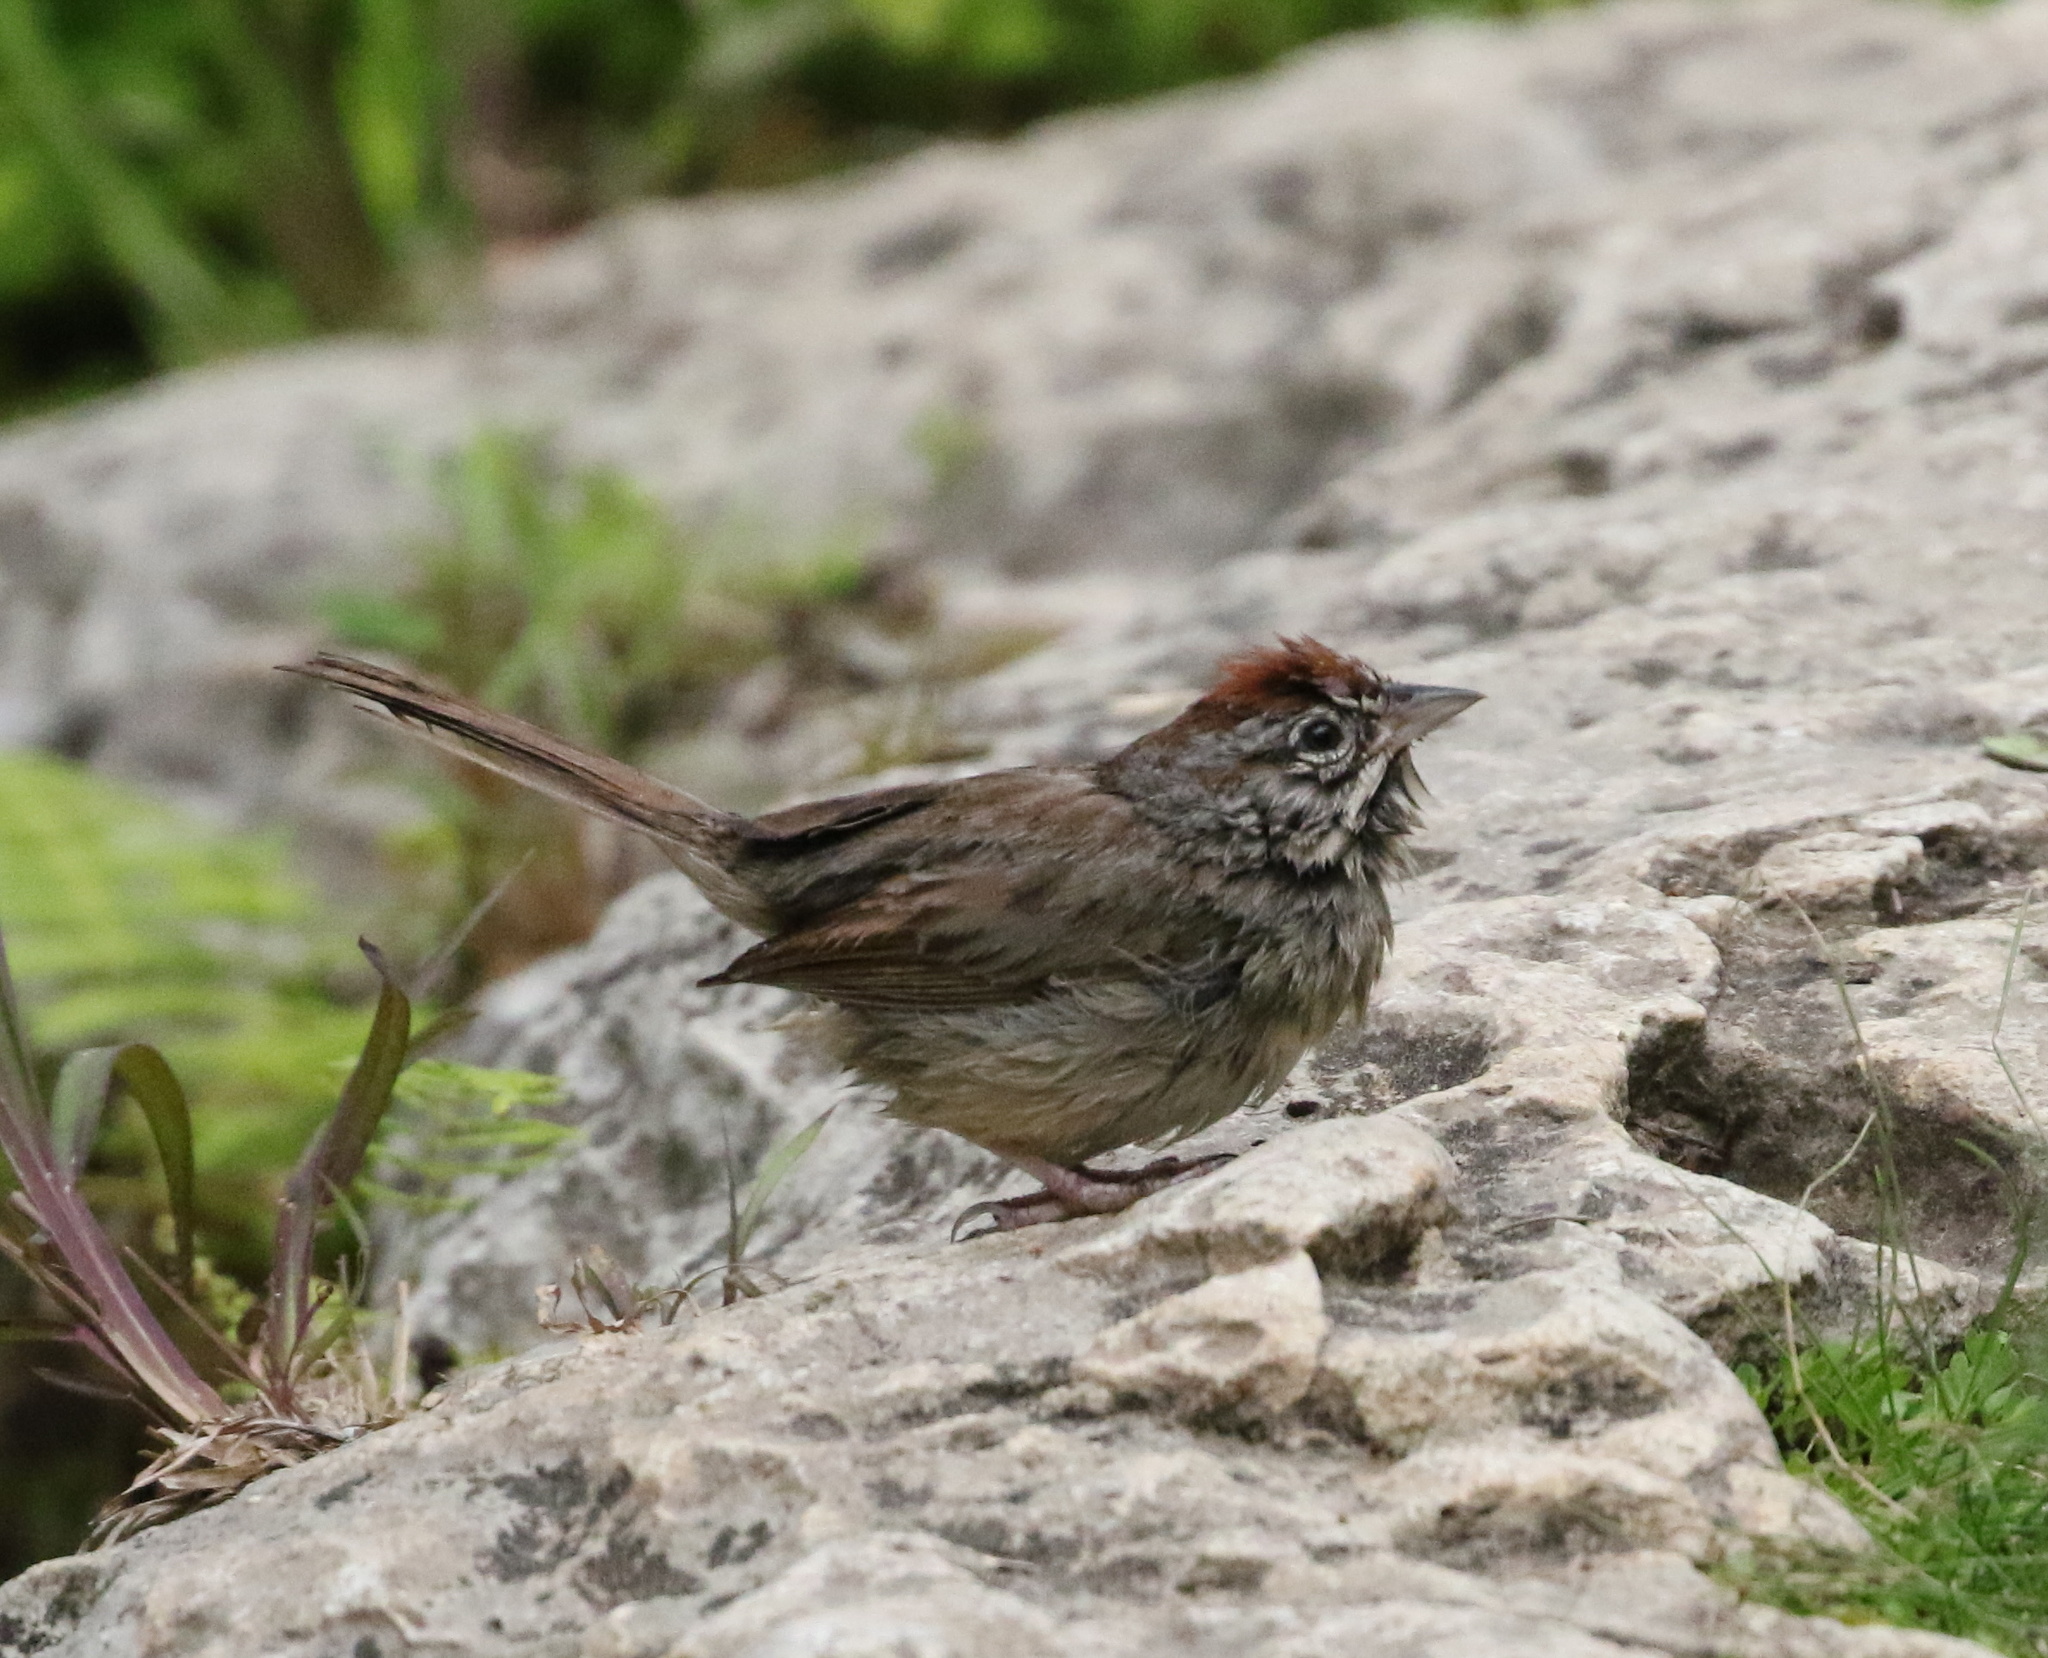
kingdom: Animalia
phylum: Chordata
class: Aves
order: Passeriformes
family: Passerellidae
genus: Aimophila
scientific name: Aimophila ruficeps
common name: Rufous-crowned sparrow
